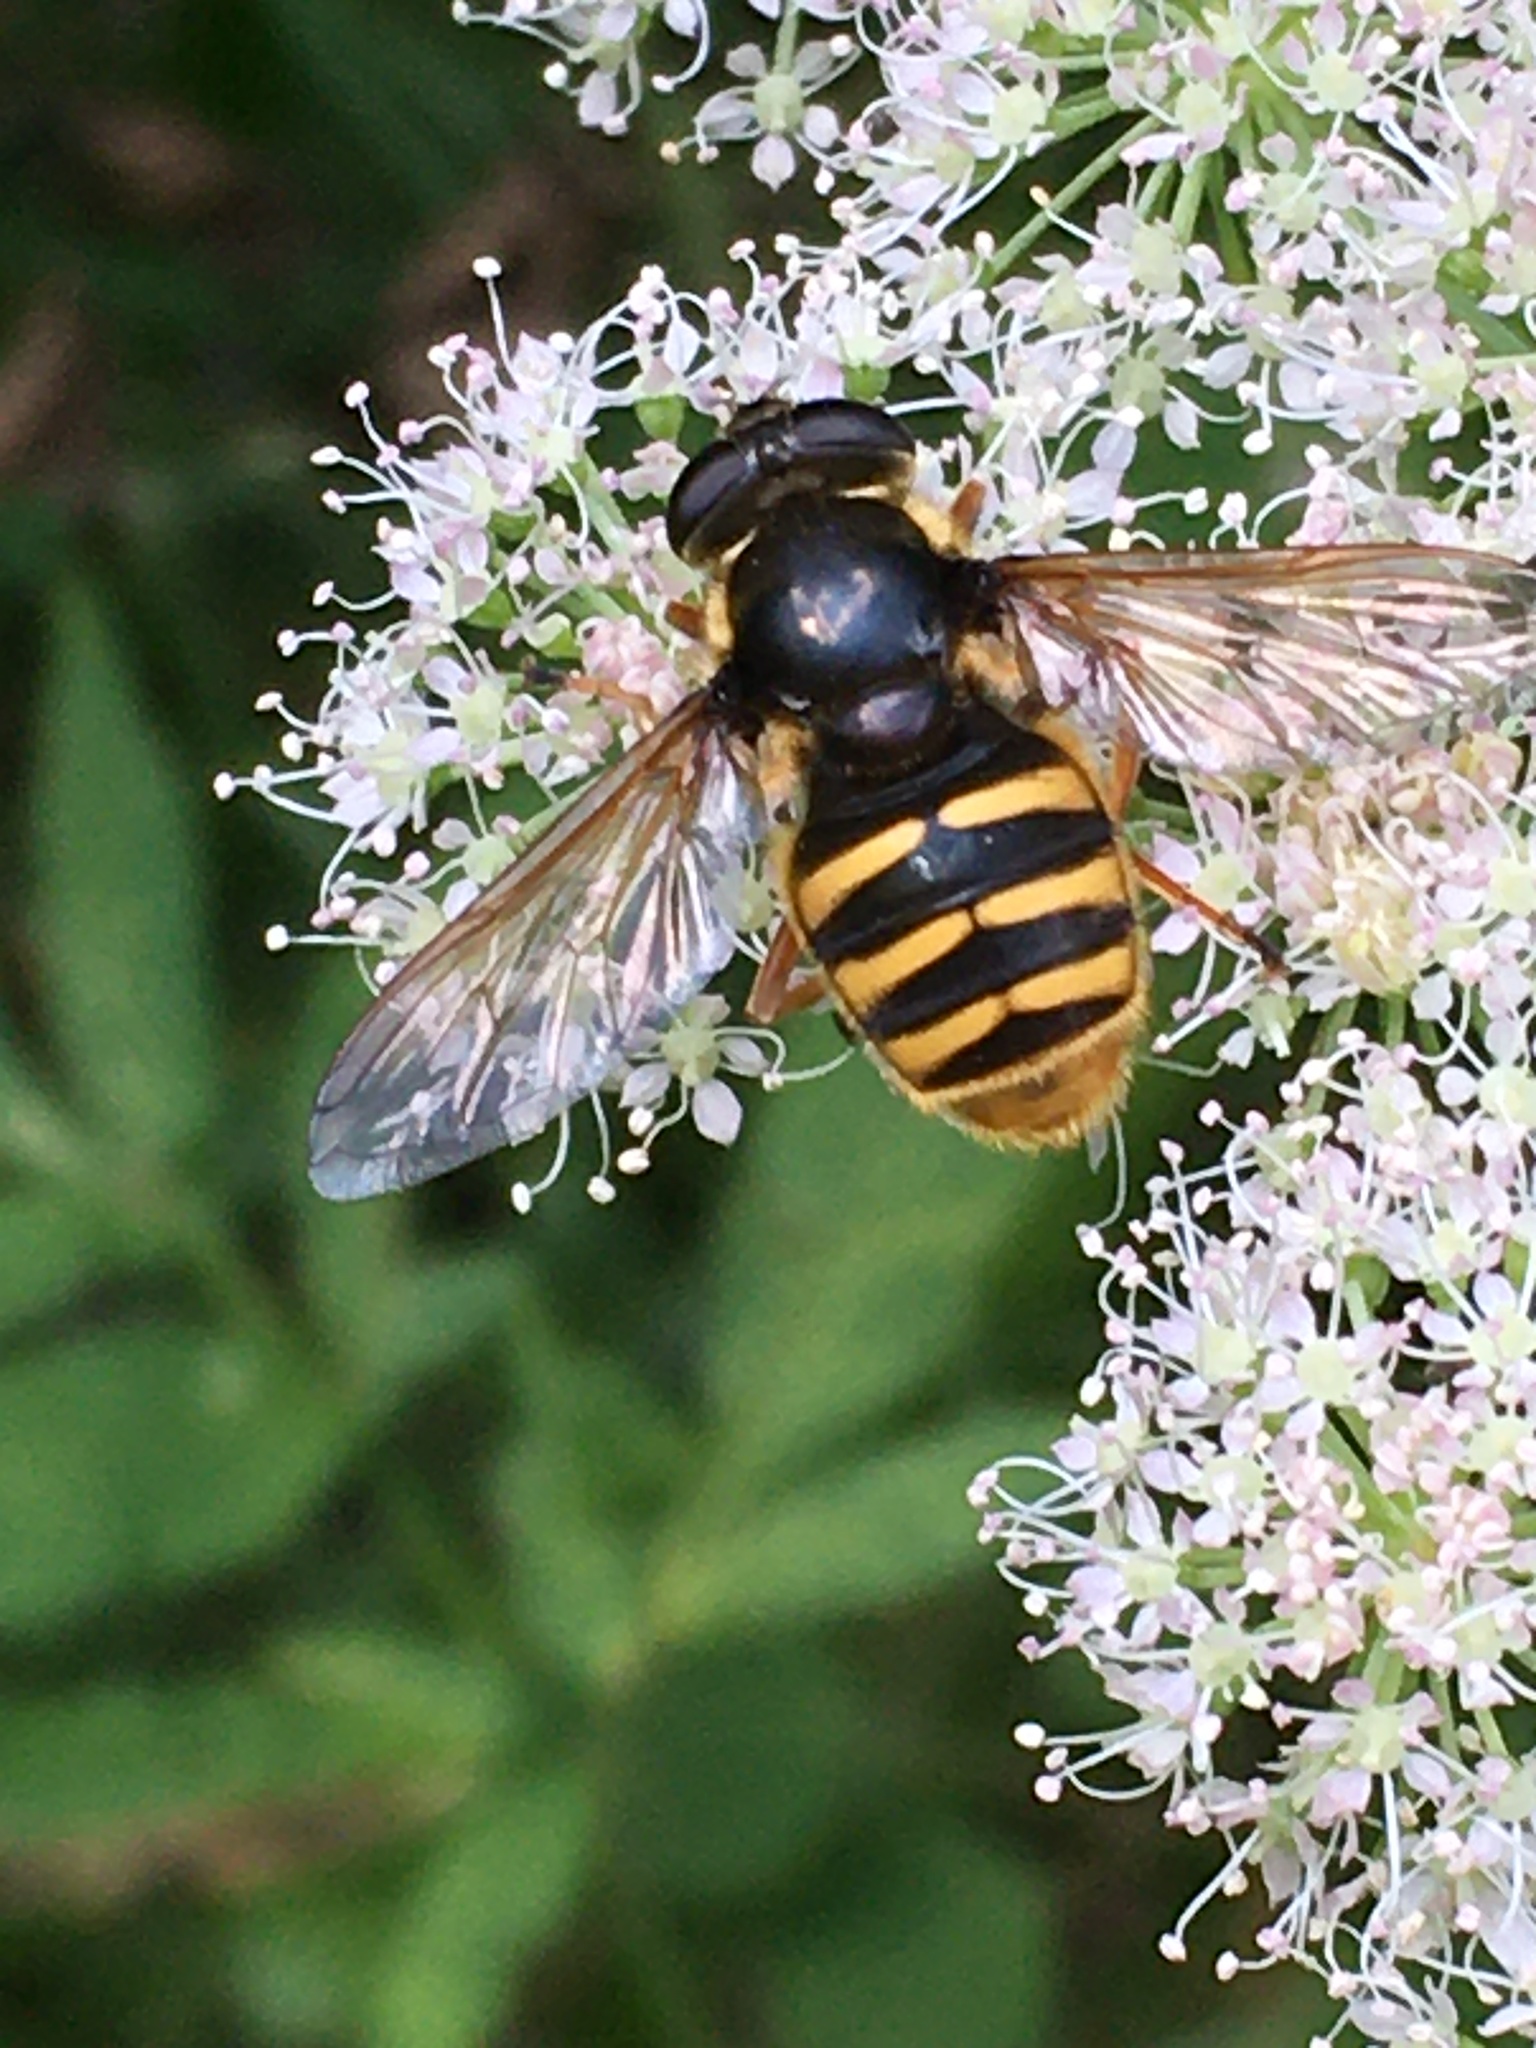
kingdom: Animalia
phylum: Arthropoda
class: Insecta
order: Diptera
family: Syrphidae
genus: Sericomyia
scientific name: Sericomyia silentis
